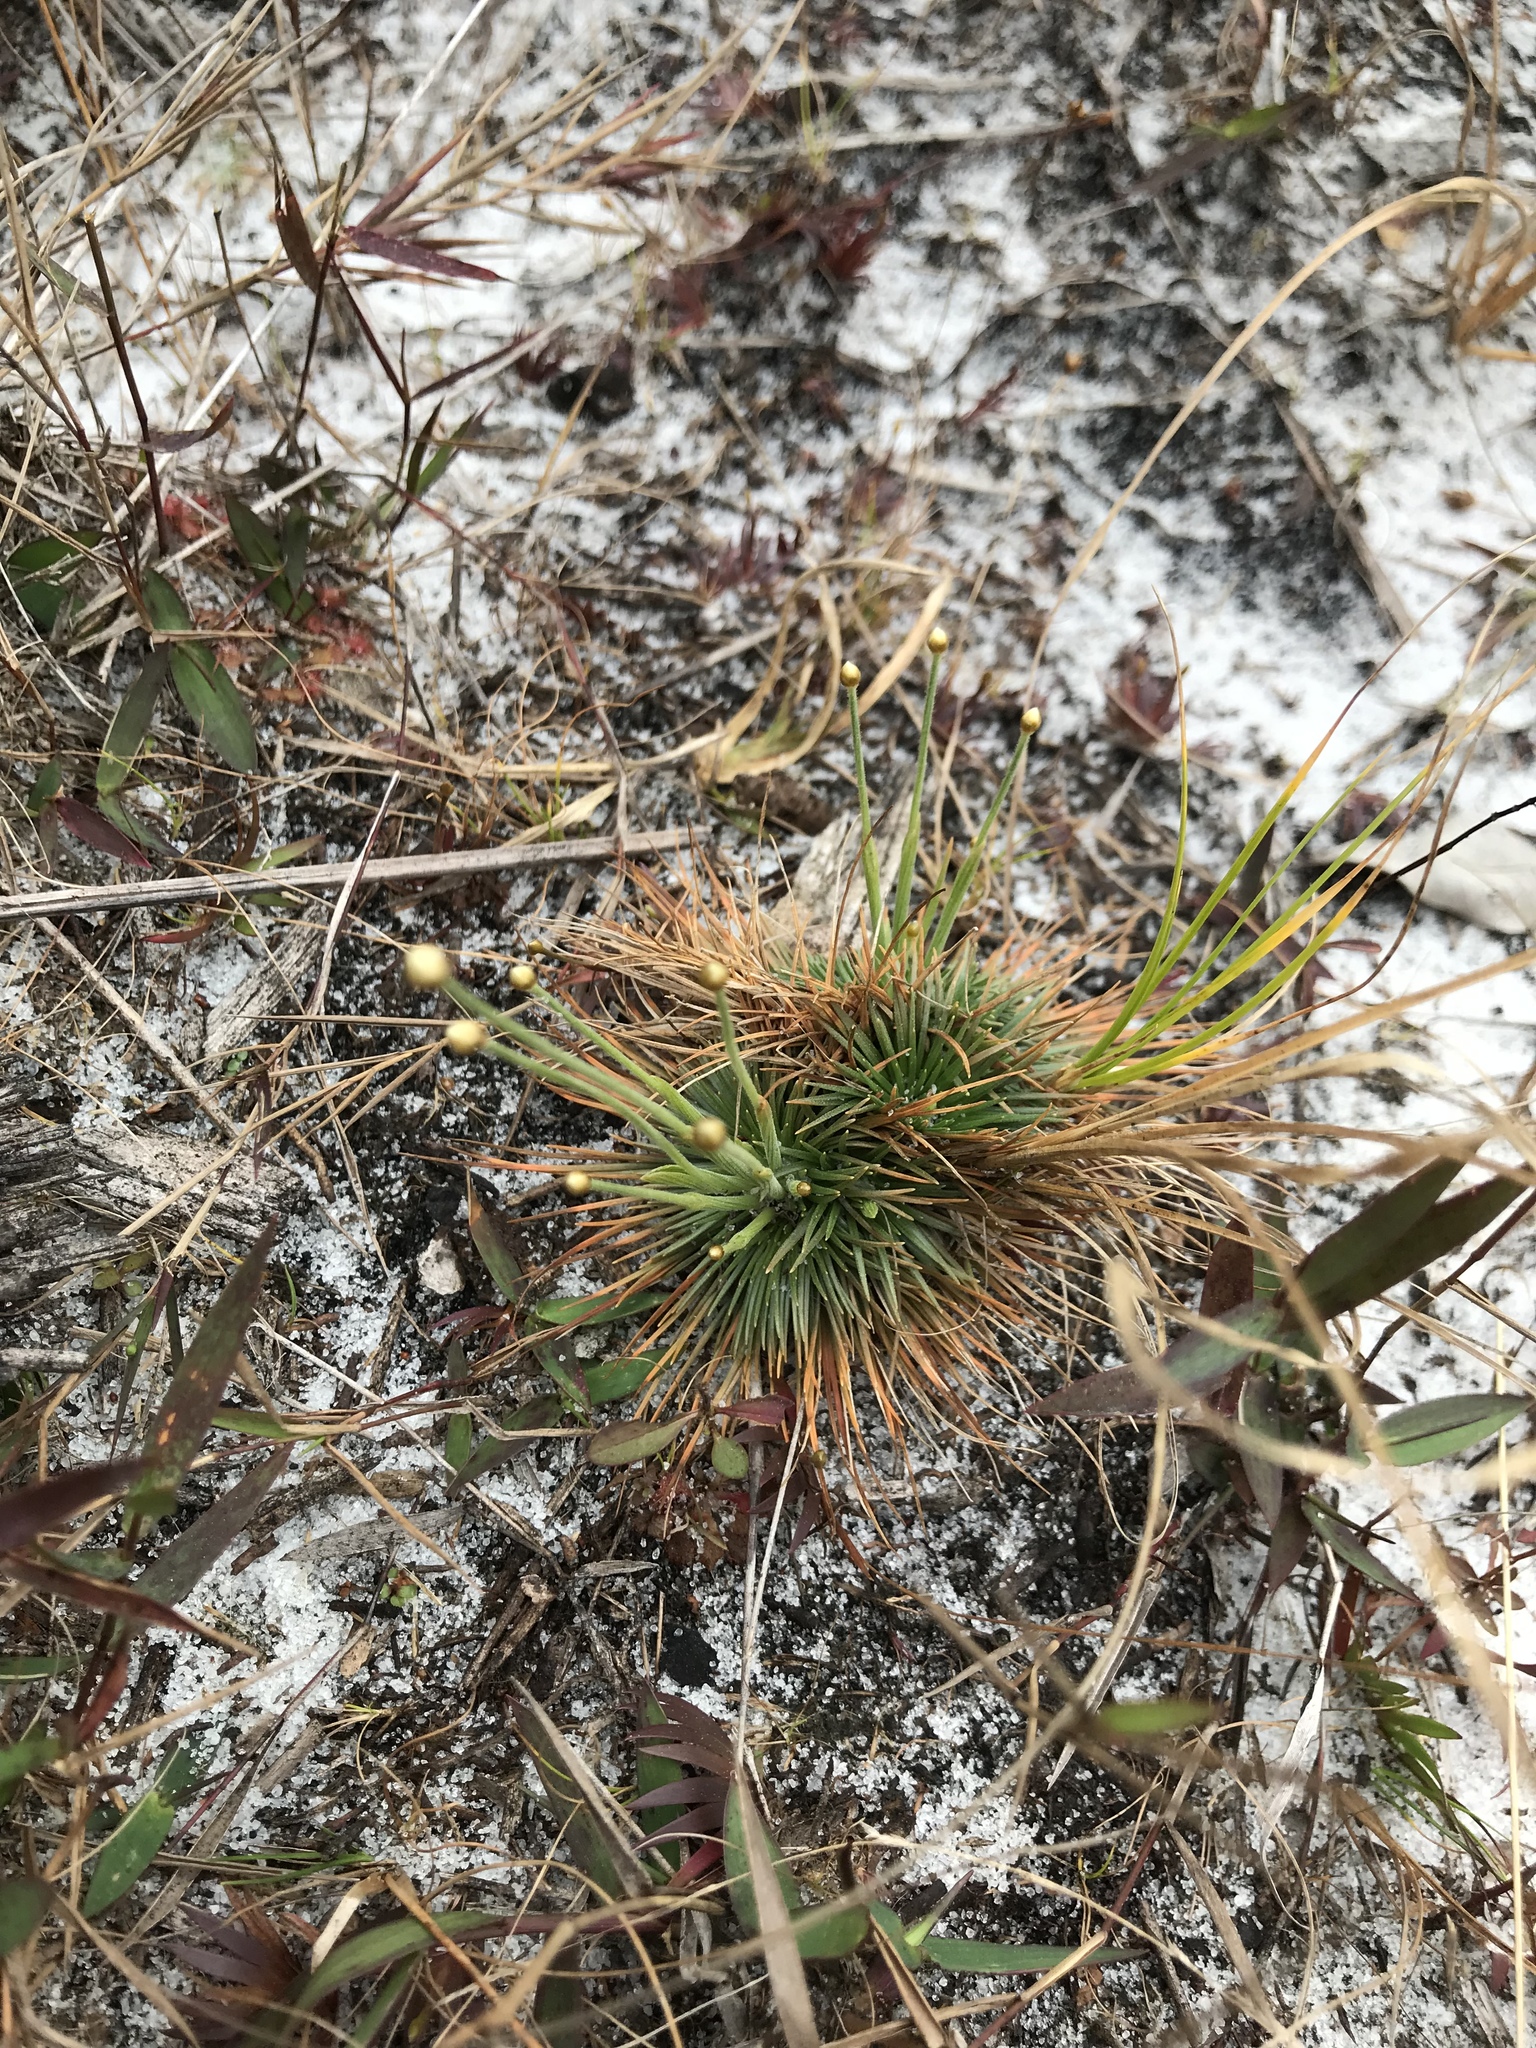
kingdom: Plantae
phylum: Tracheophyta
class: Liliopsida
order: Poales
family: Eriocaulaceae
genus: Syngonanthus
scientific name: Syngonanthus flavidulus
